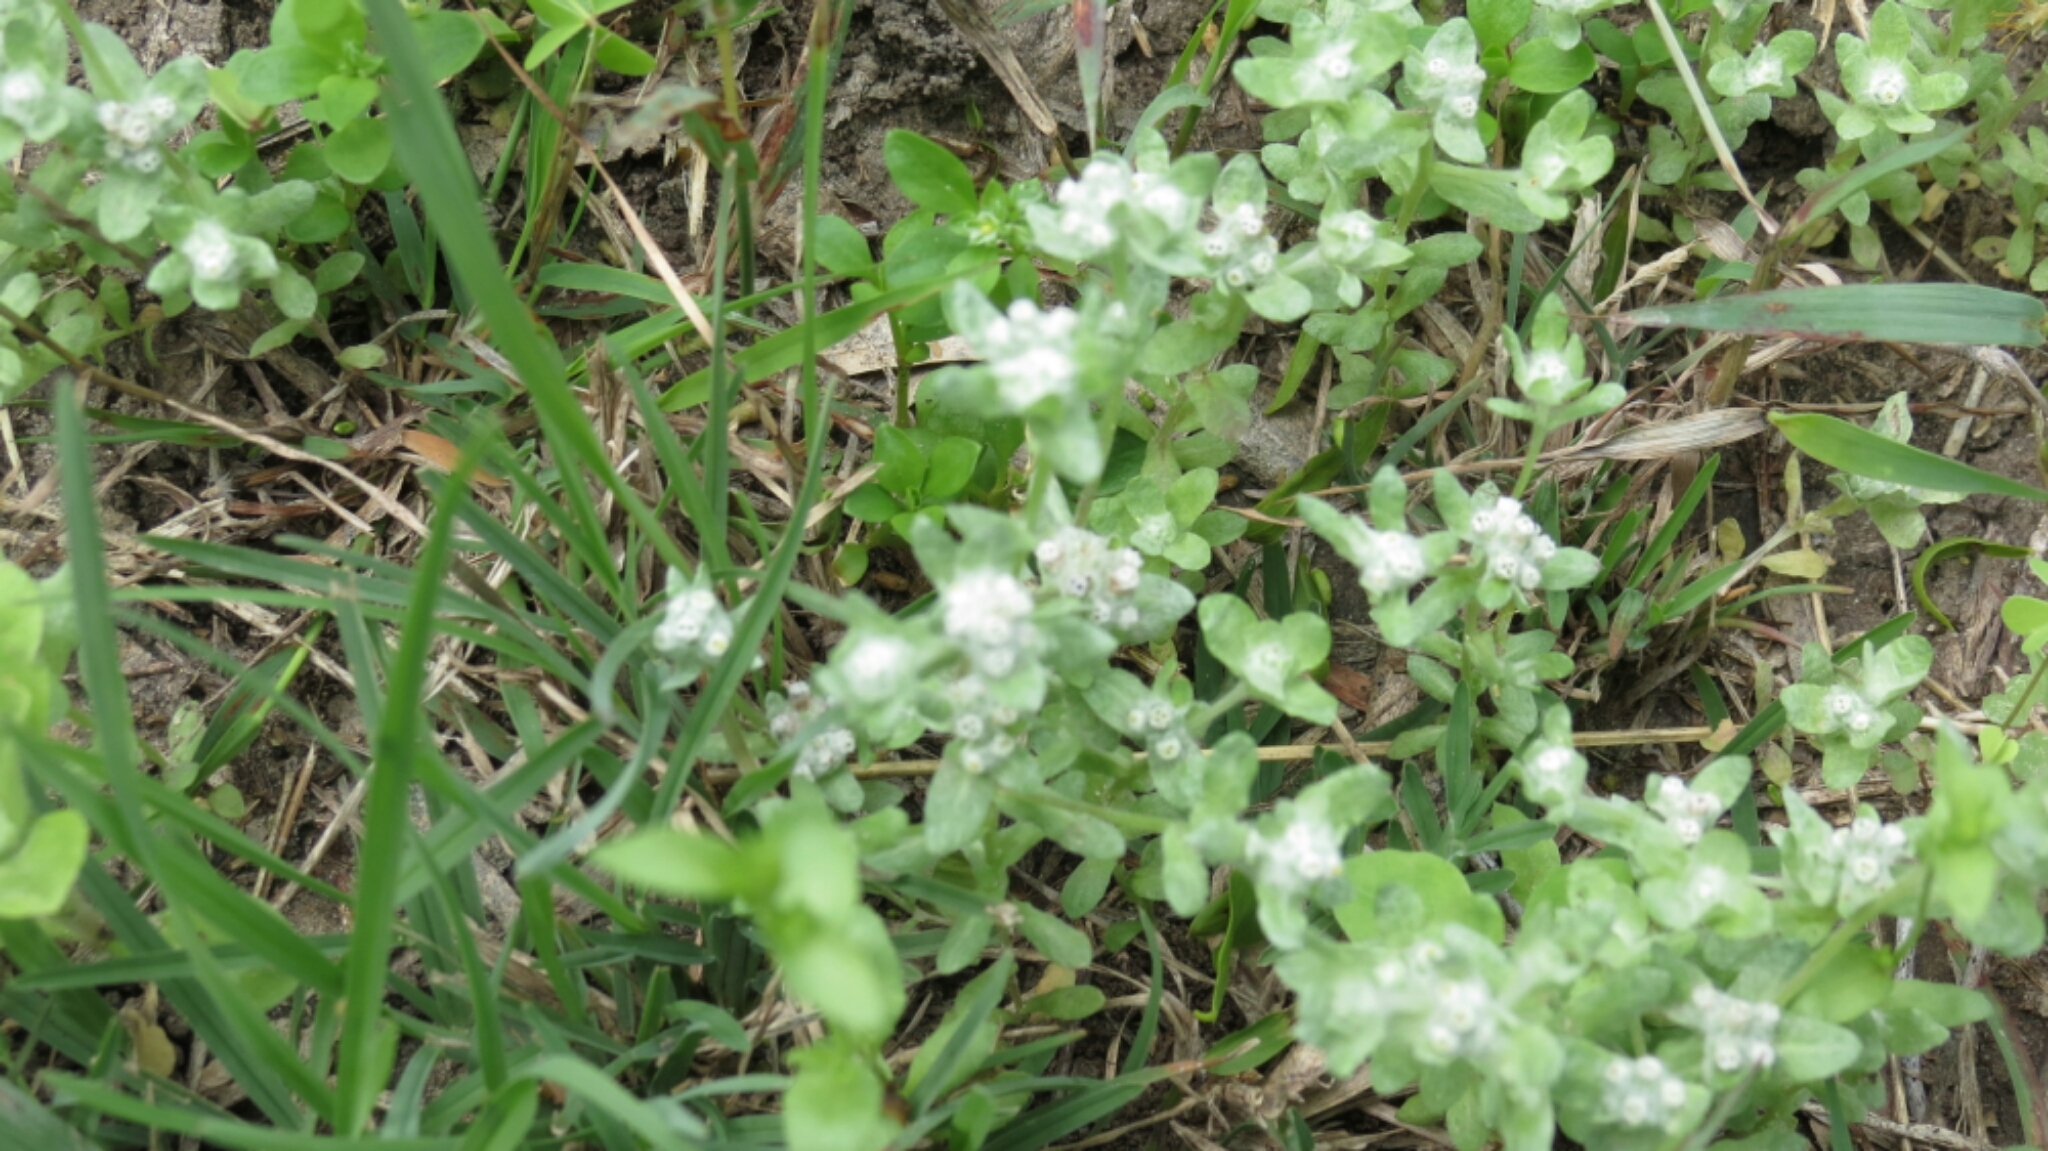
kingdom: Plantae
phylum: Tracheophyta
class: Magnoliopsida
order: Asterales
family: Asteraceae
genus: Diaperia
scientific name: Diaperia verna
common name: Many-stem rabbit-tobacco
